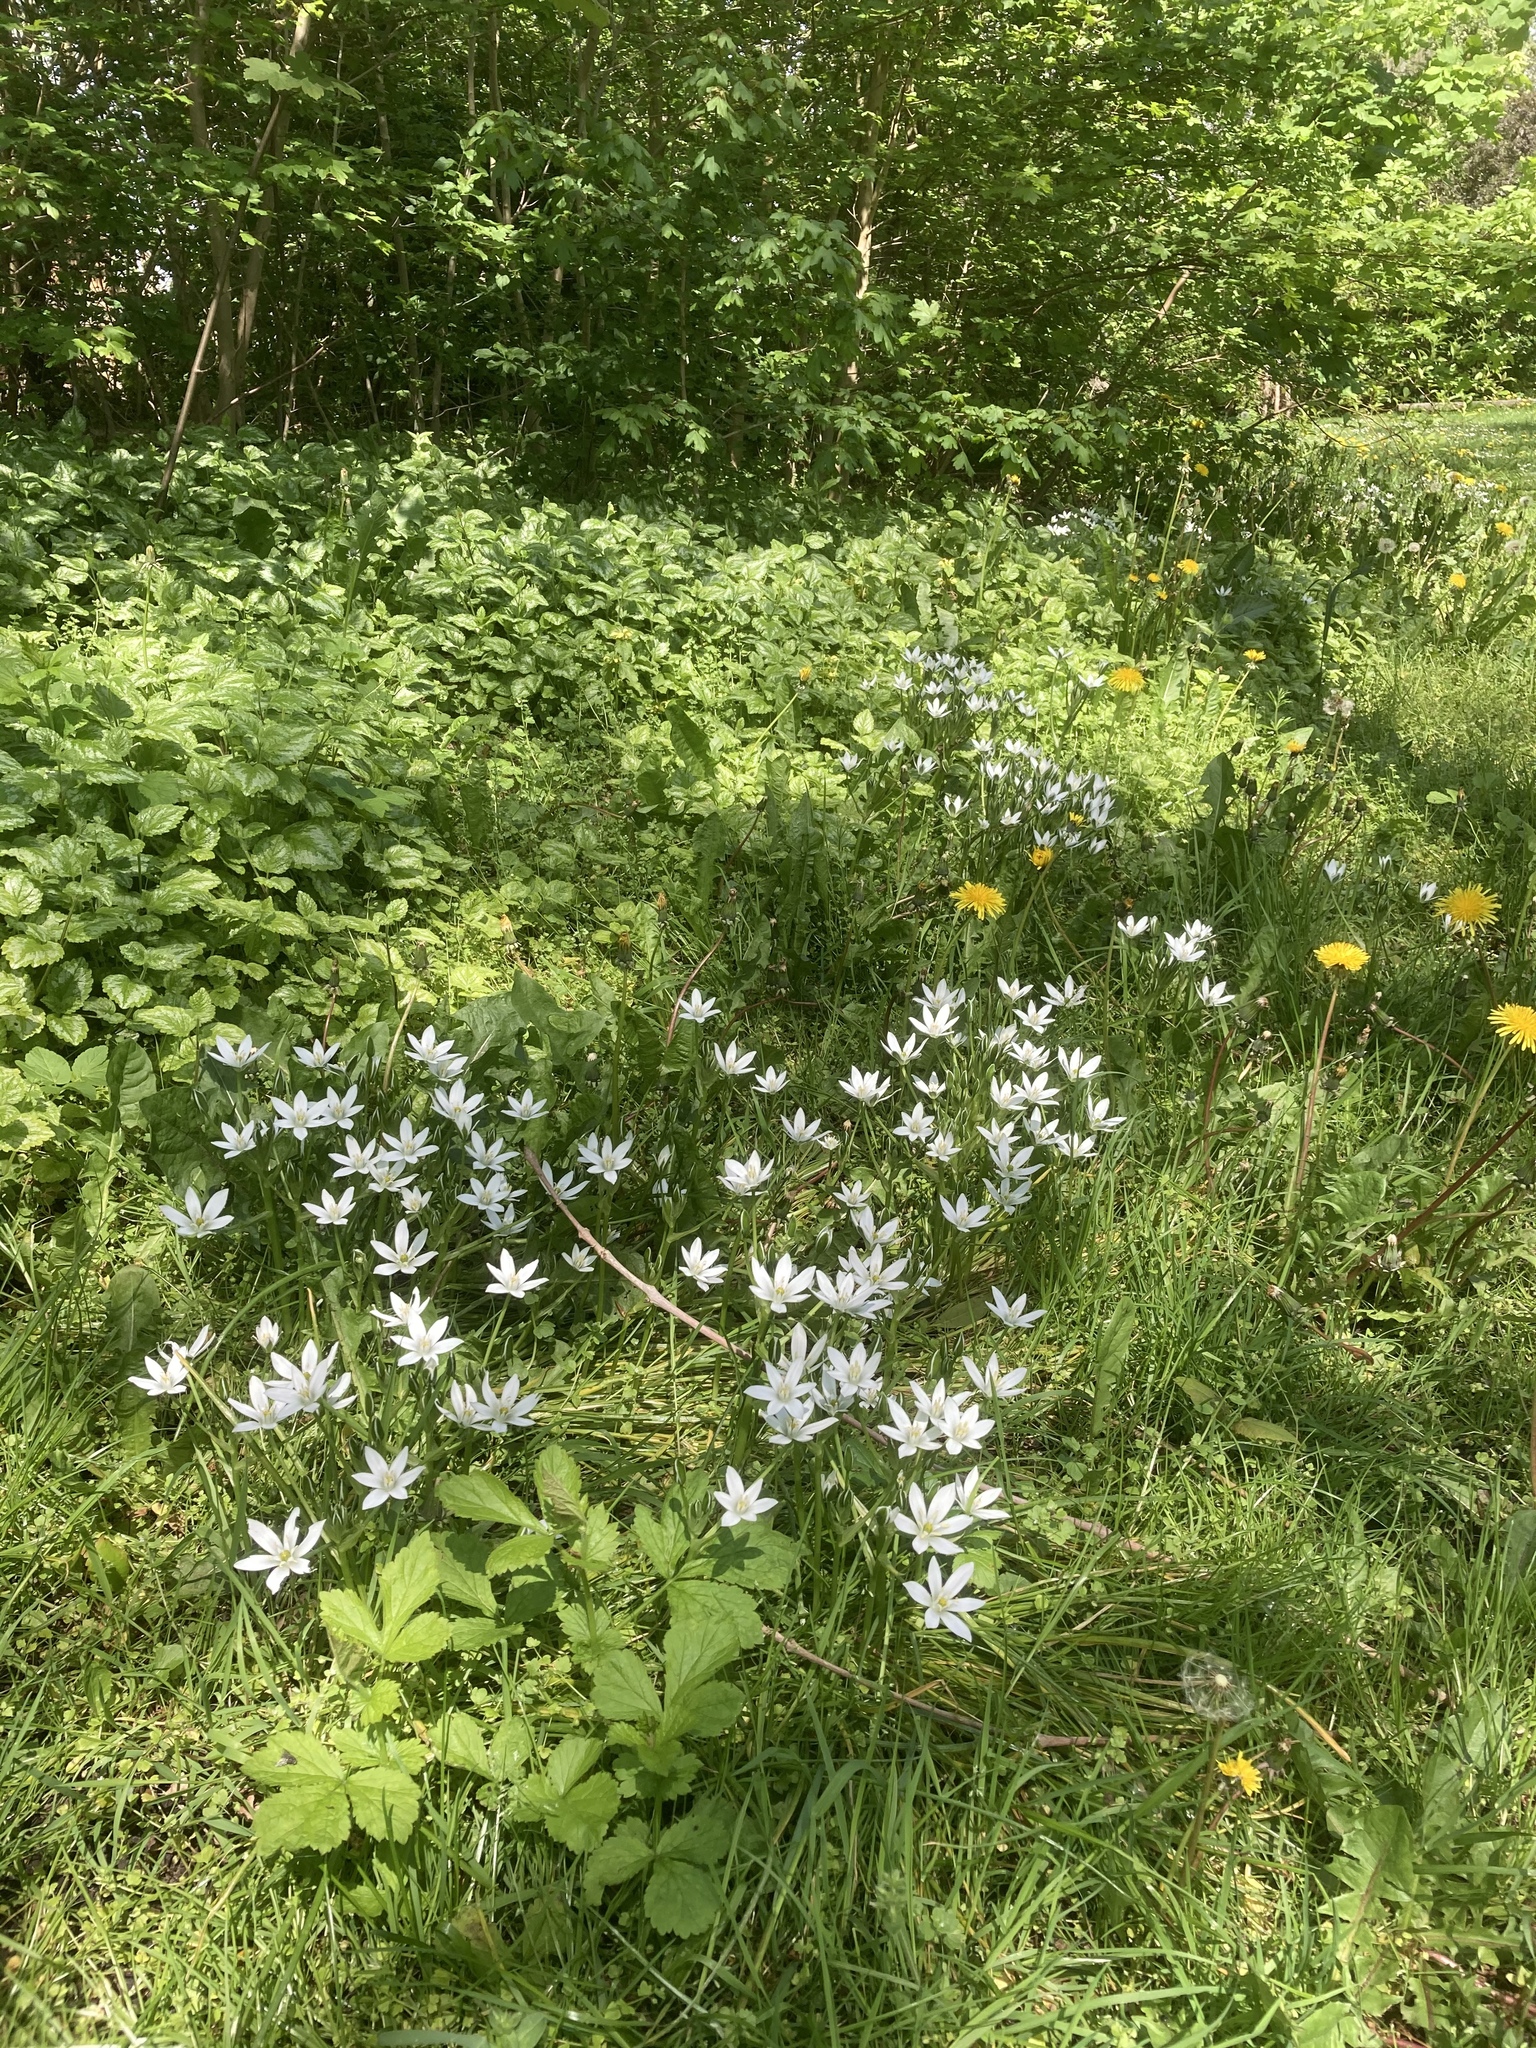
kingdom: Plantae
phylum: Tracheophyta
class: Liliopsida
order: Asparagales
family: Asparagaceae
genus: Ornithogalum
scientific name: Ornithogalum umbellatum
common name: Garden star-of-bethlehem
